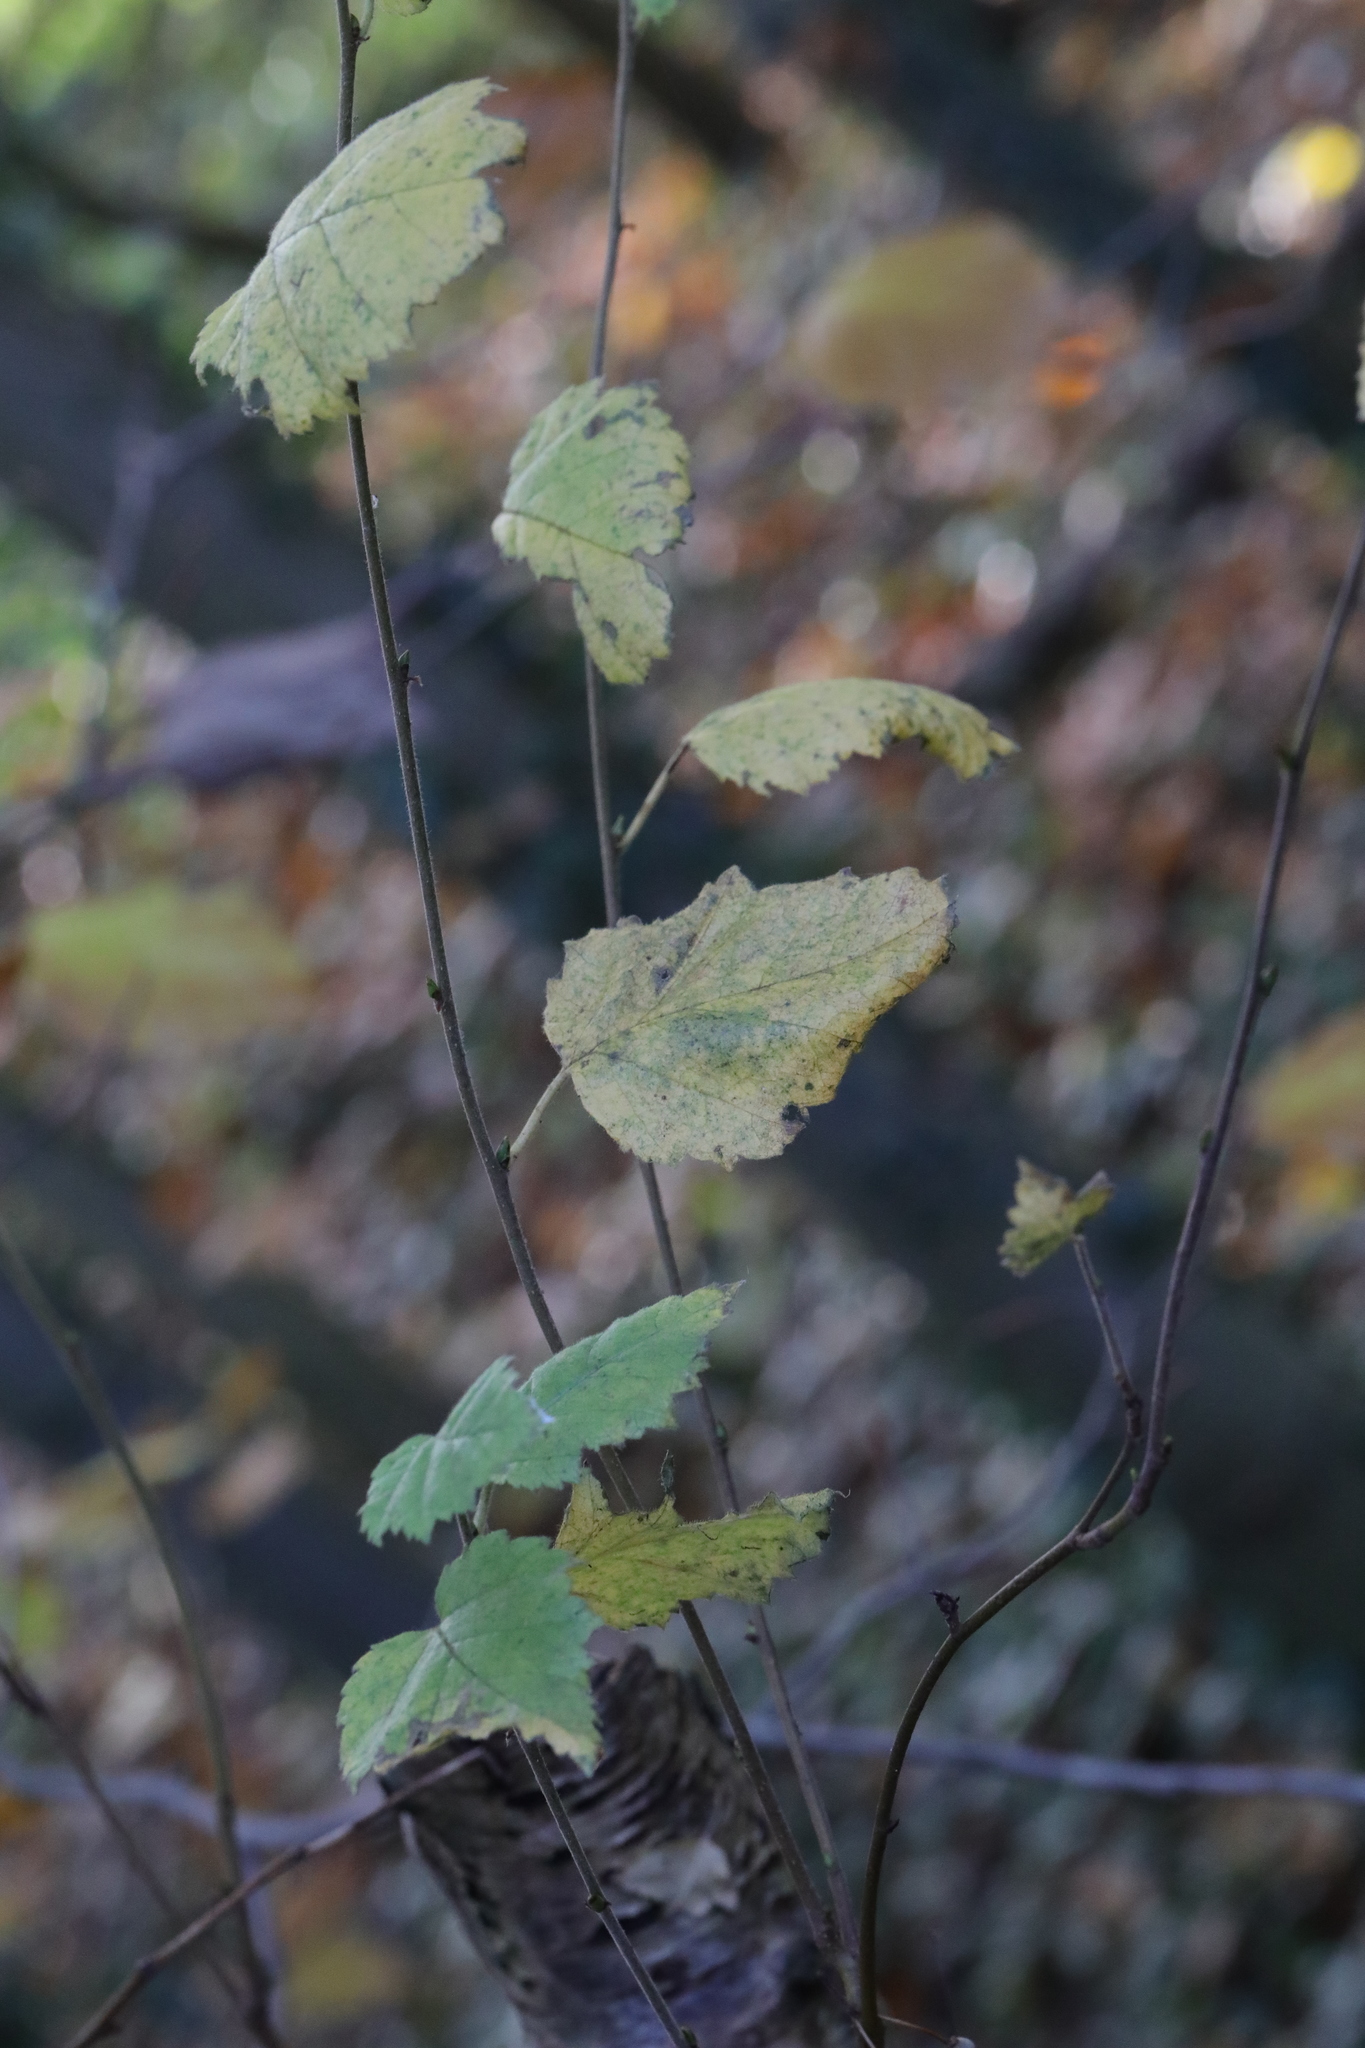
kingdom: Plantae
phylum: Tracheophyta
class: Magnoliopsida
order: Fagales
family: Betulaceae
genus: Betula
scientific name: Betula pendula
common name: Silver birch
